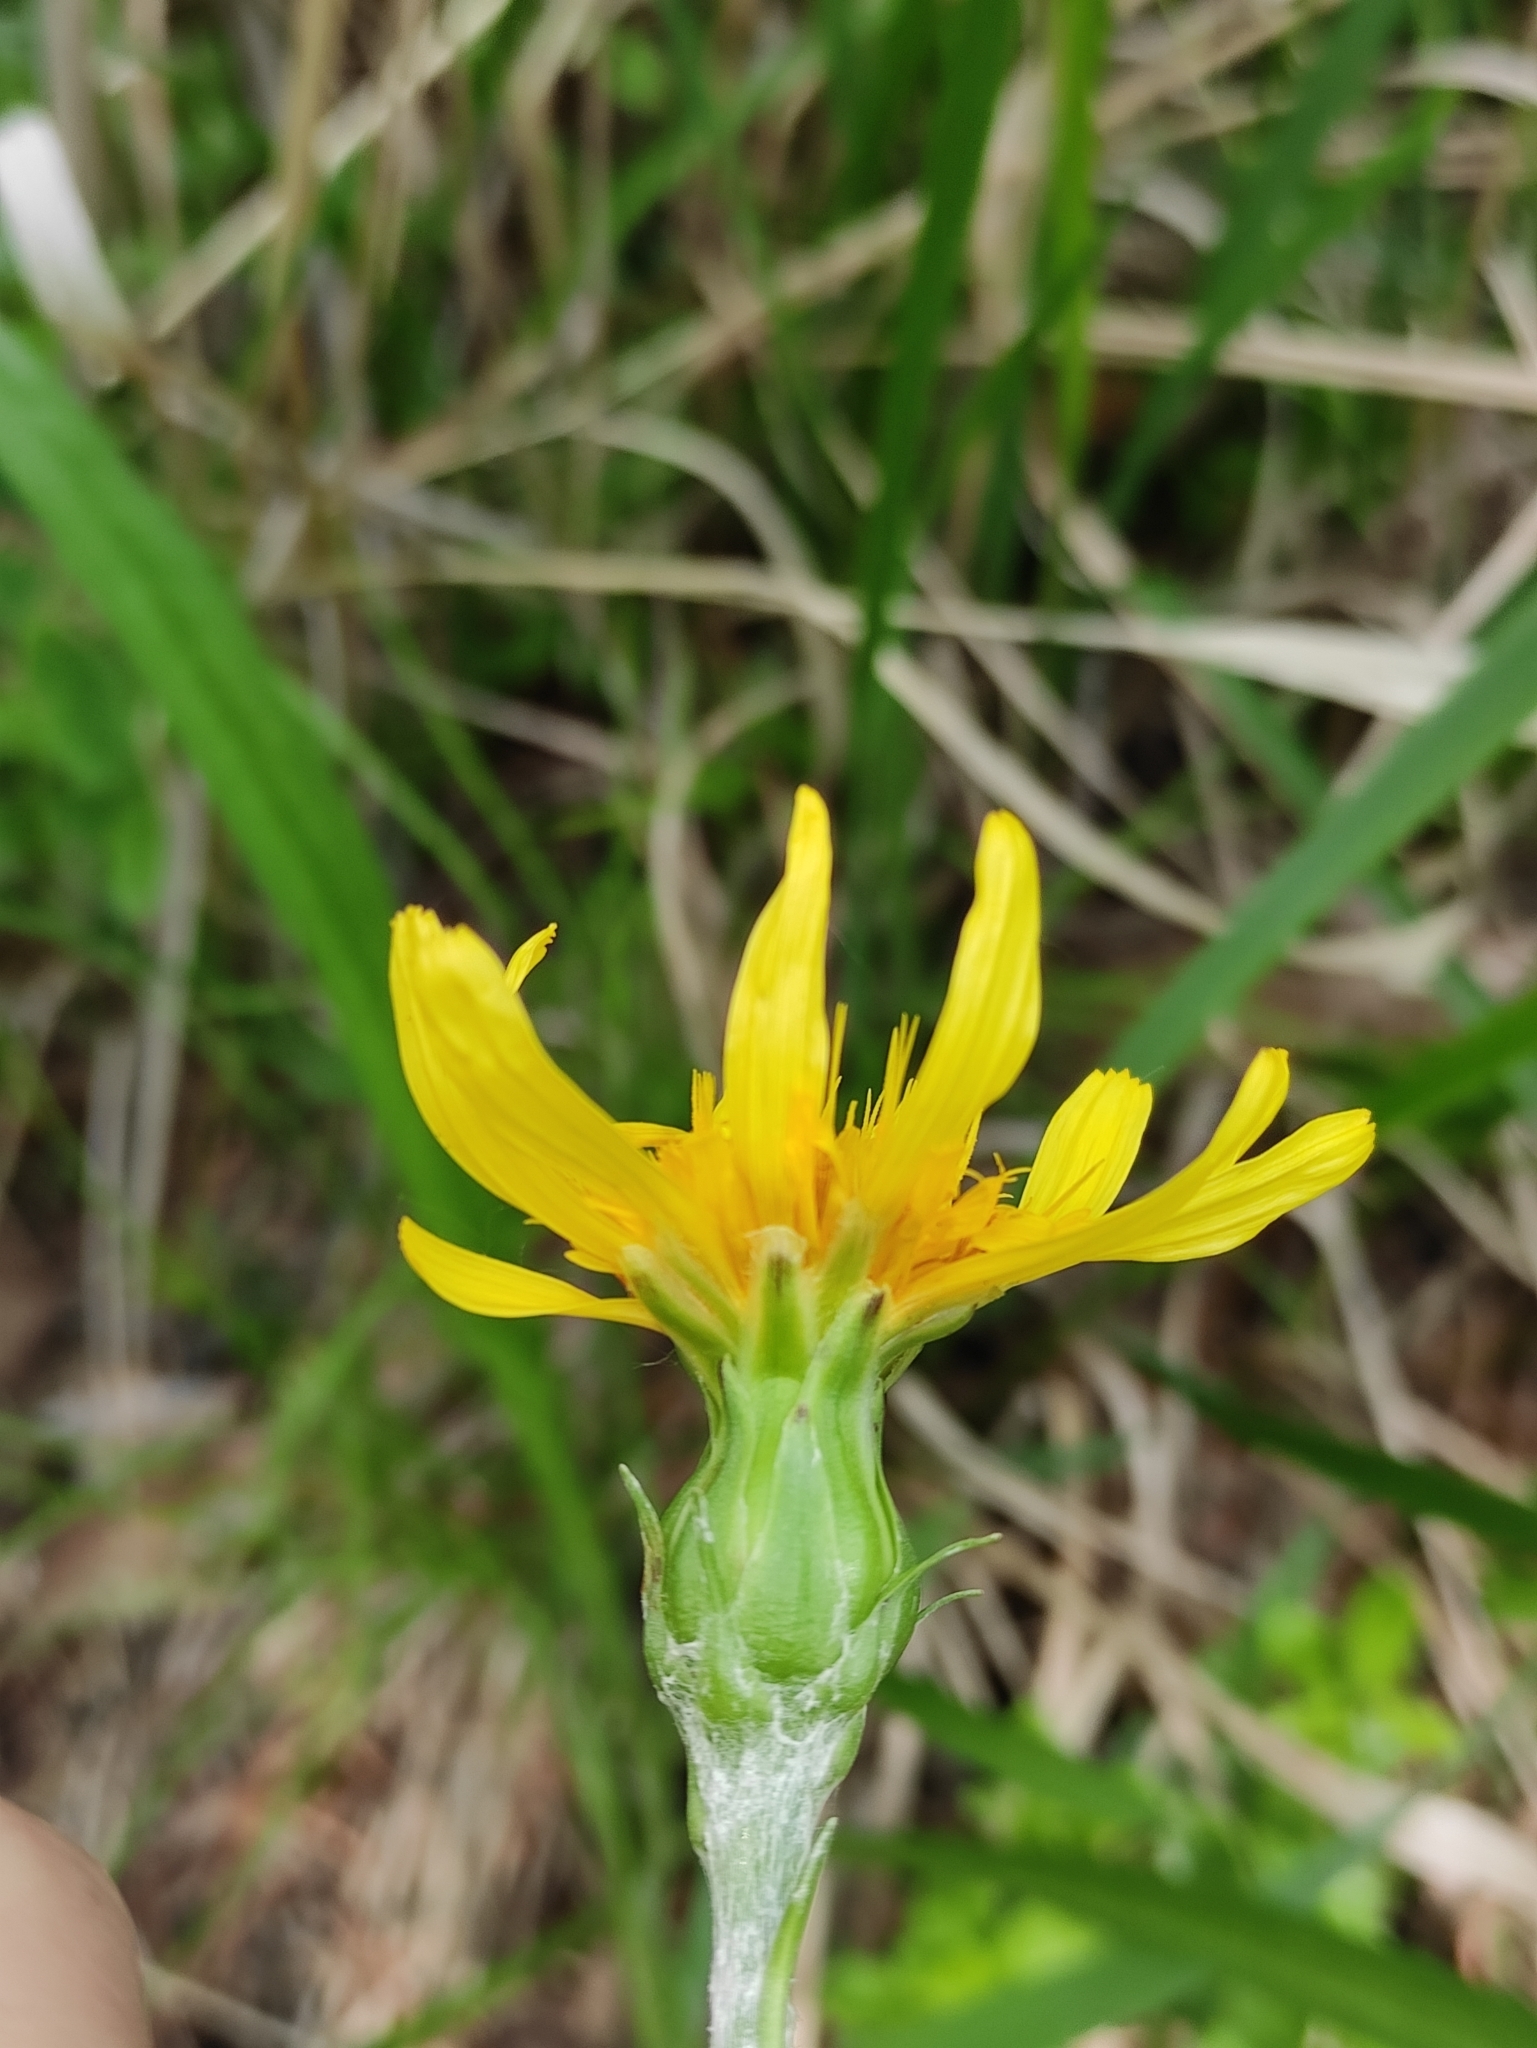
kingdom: Plantae
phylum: Tracheophyta
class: Magnoliopsida
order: Asterales
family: Asteraceae
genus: Scorzonera
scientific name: Scorzonera radiata
